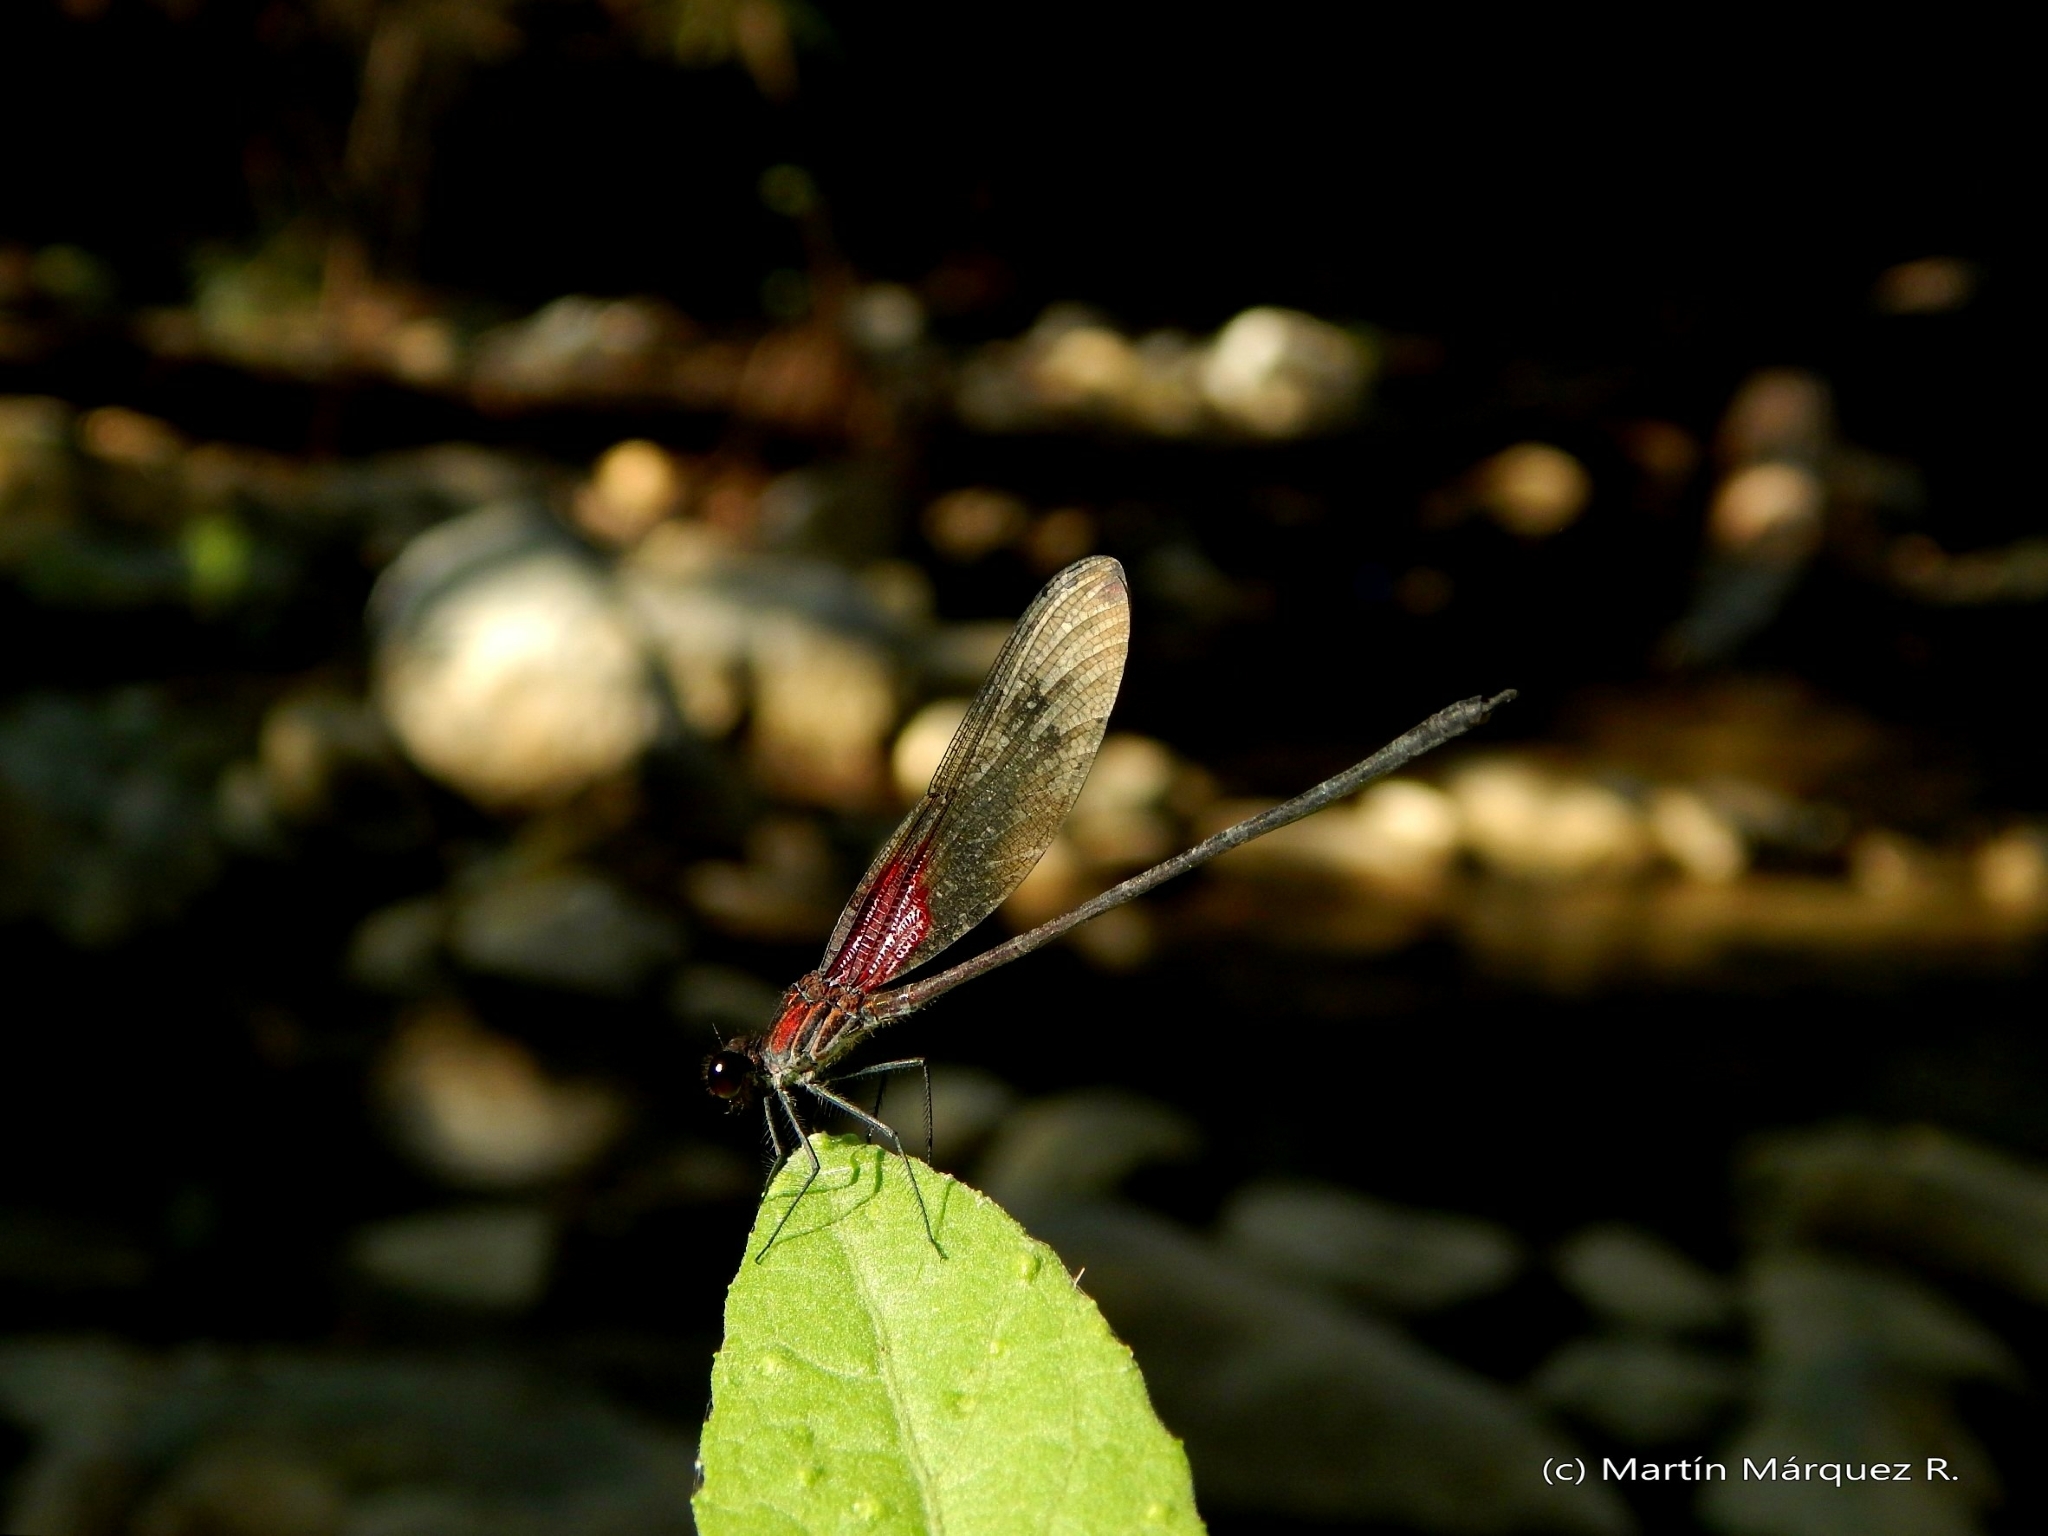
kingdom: Animalia
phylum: Arthropoda
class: Insecta
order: Odonata
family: Calopterygidae
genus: Hetaerina
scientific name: Hetaerina occisa
